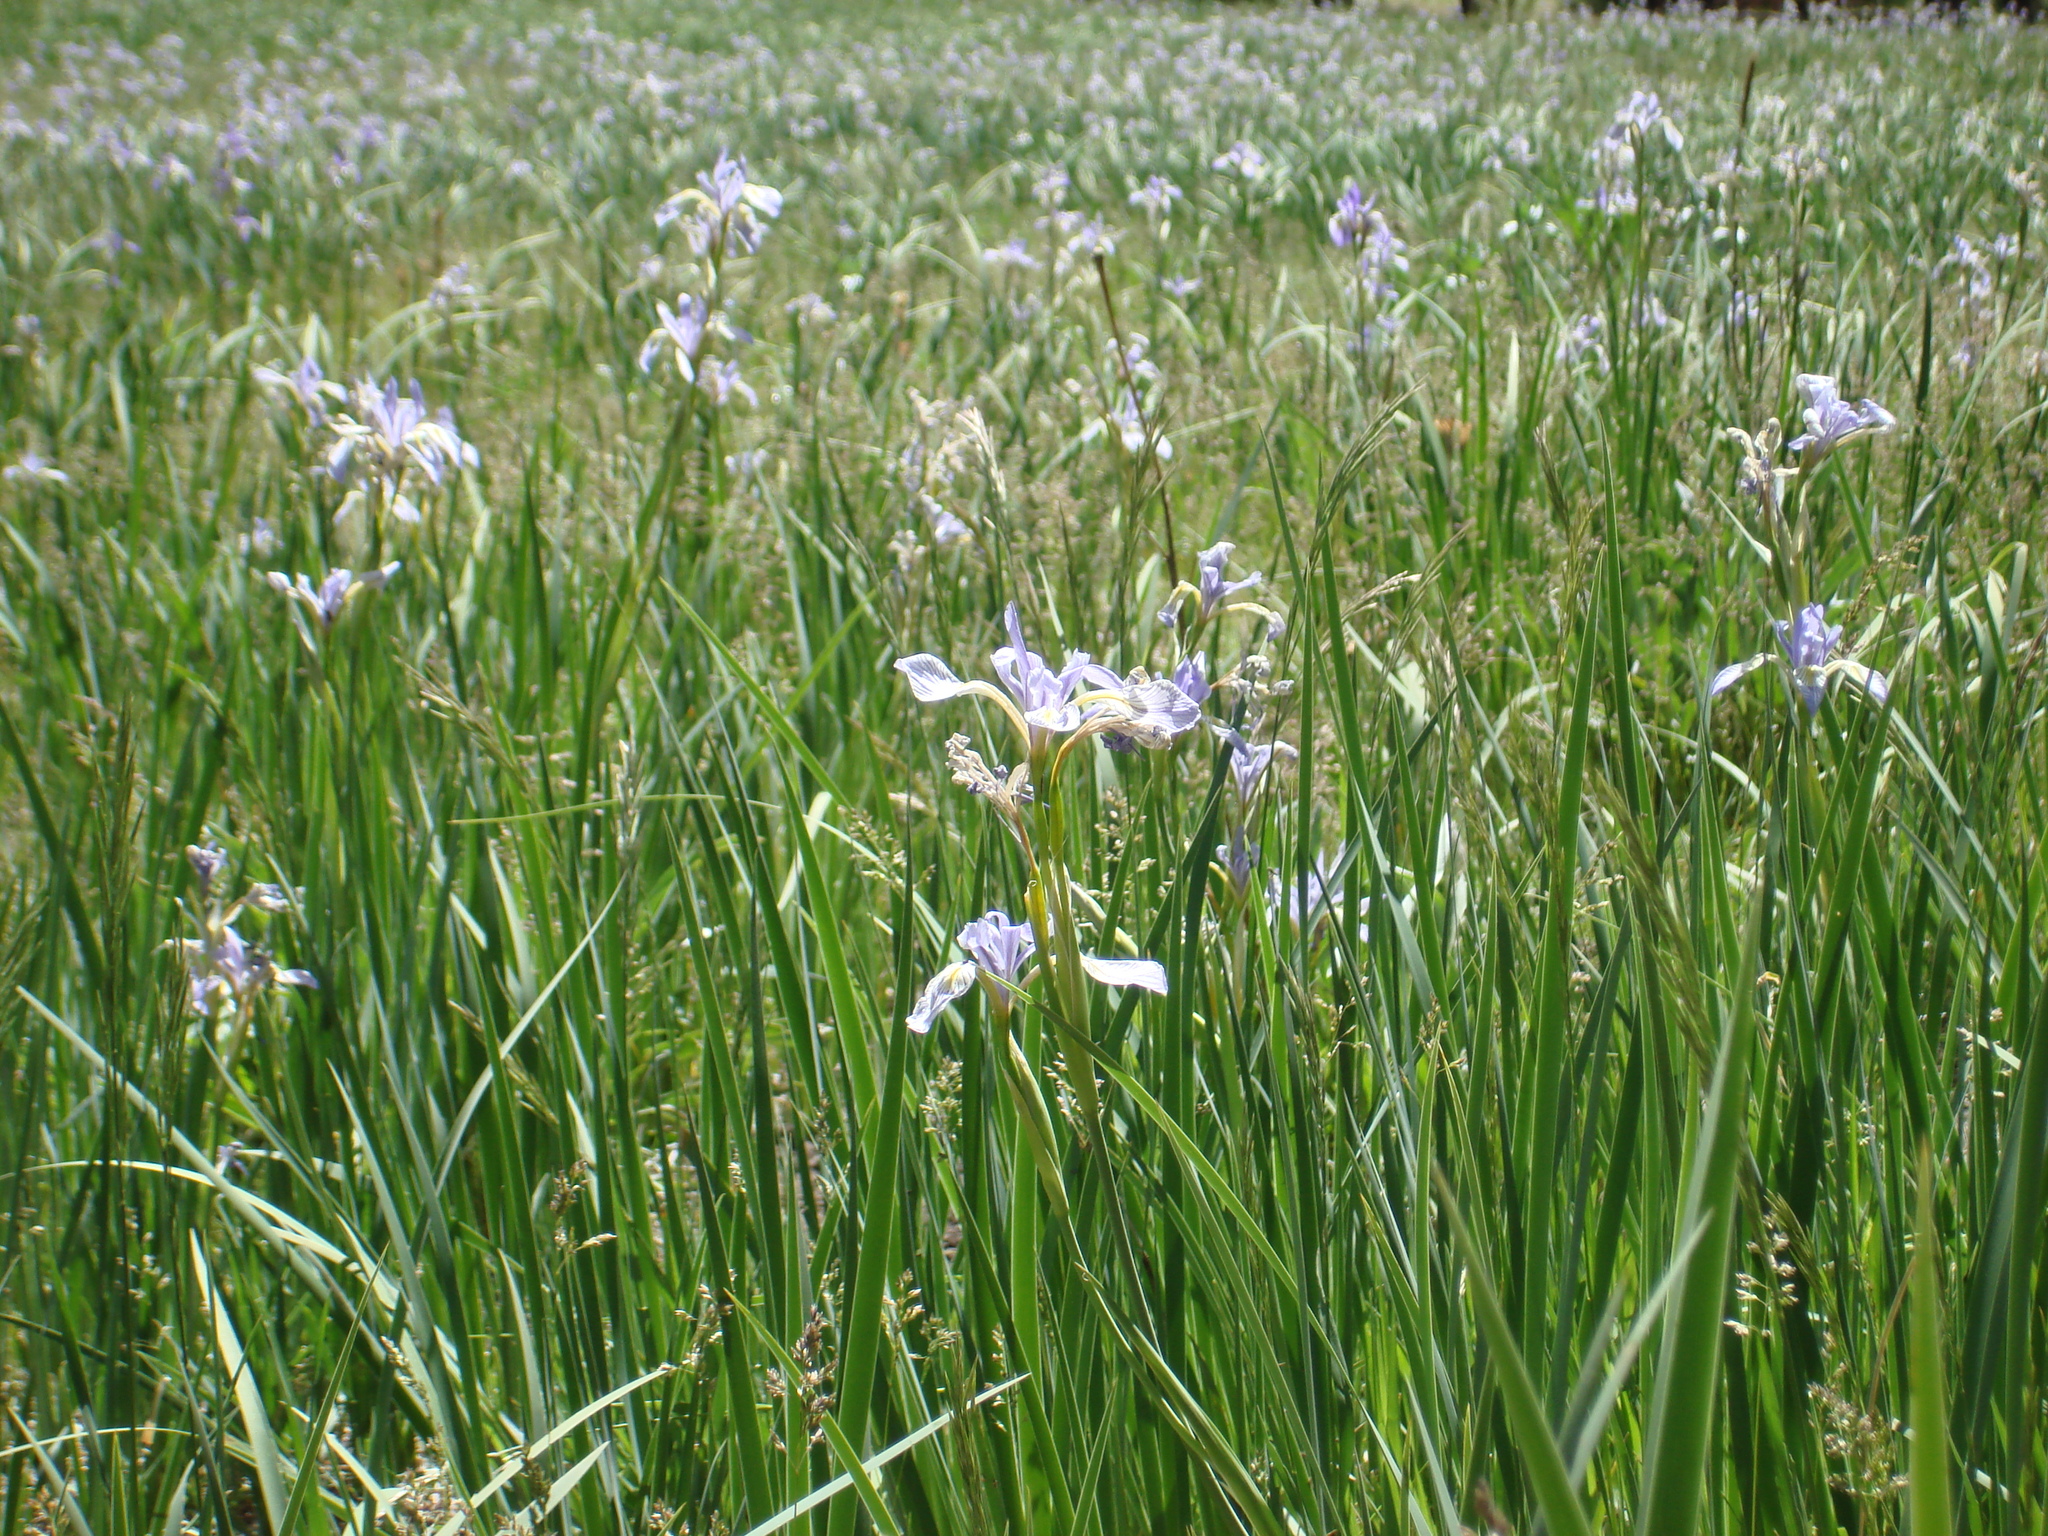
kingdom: Plantae
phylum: Tracheophyta
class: Liliopsida
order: Asparagales
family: Iridaceae
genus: Iris
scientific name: Iris missouriensis
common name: Rocky mountain iris
